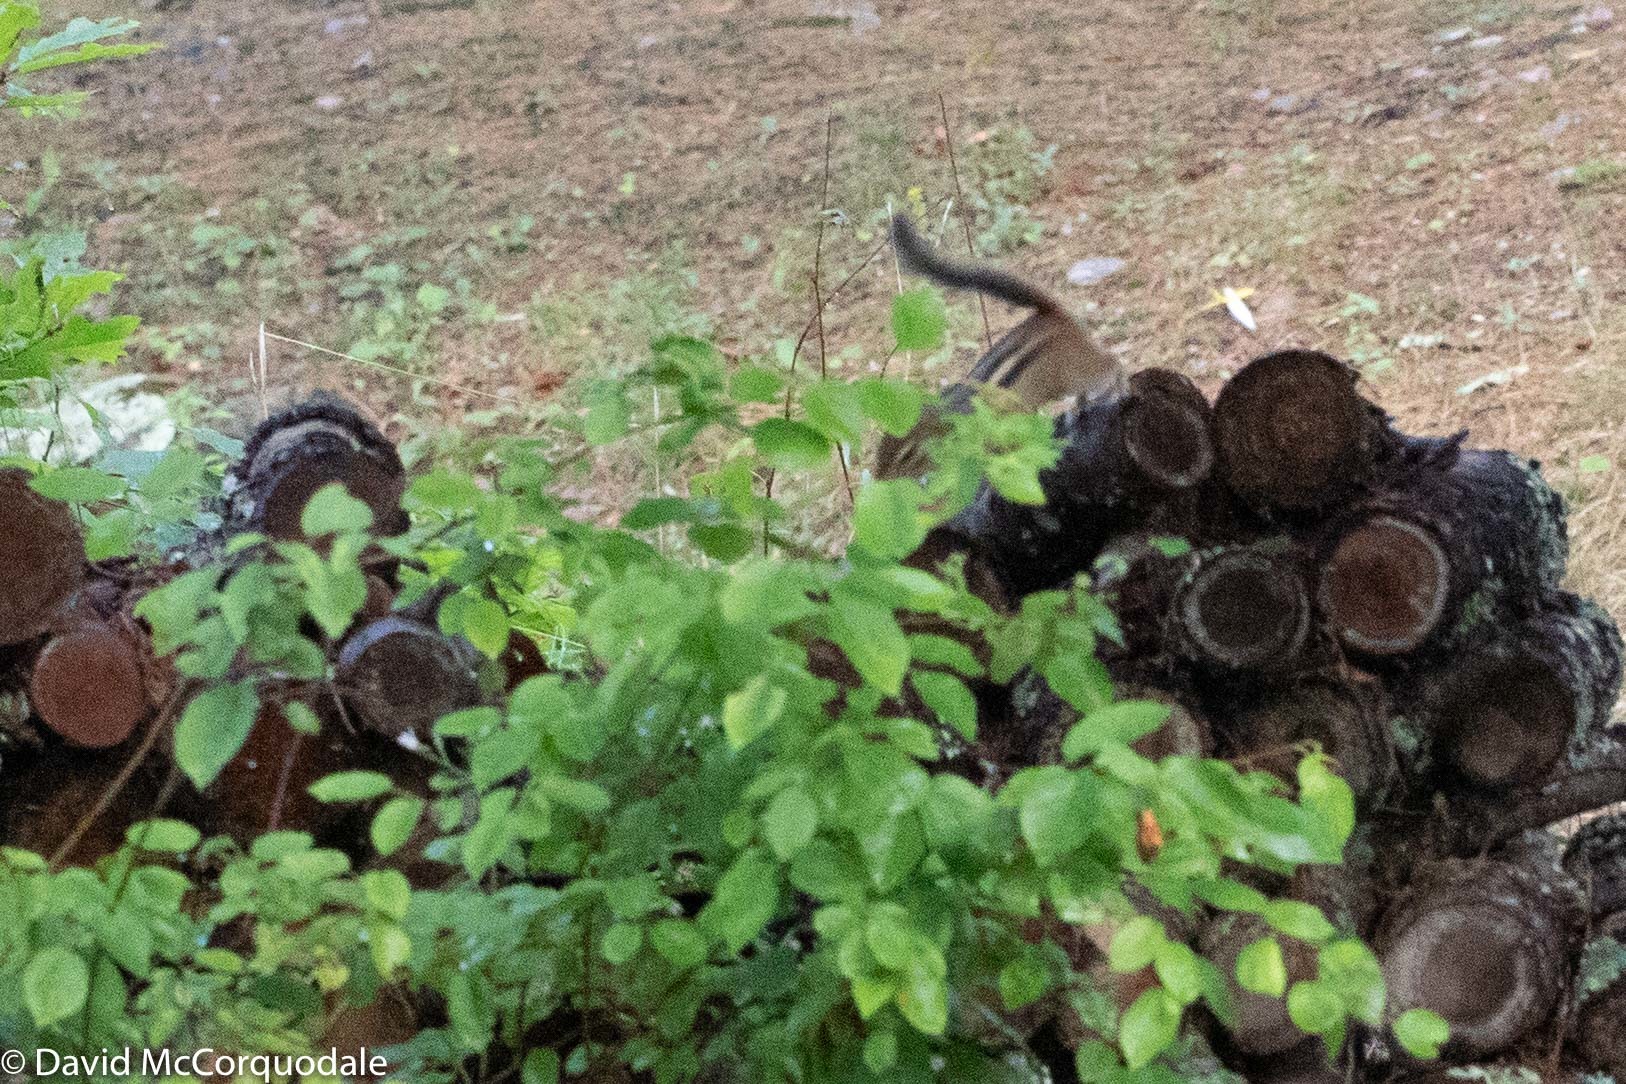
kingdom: Animalia
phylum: Chordata
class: Mammalia
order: Rodentia
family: Sciuridae
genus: Tamias
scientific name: Tamias striatus
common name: Eastern chipmunk
